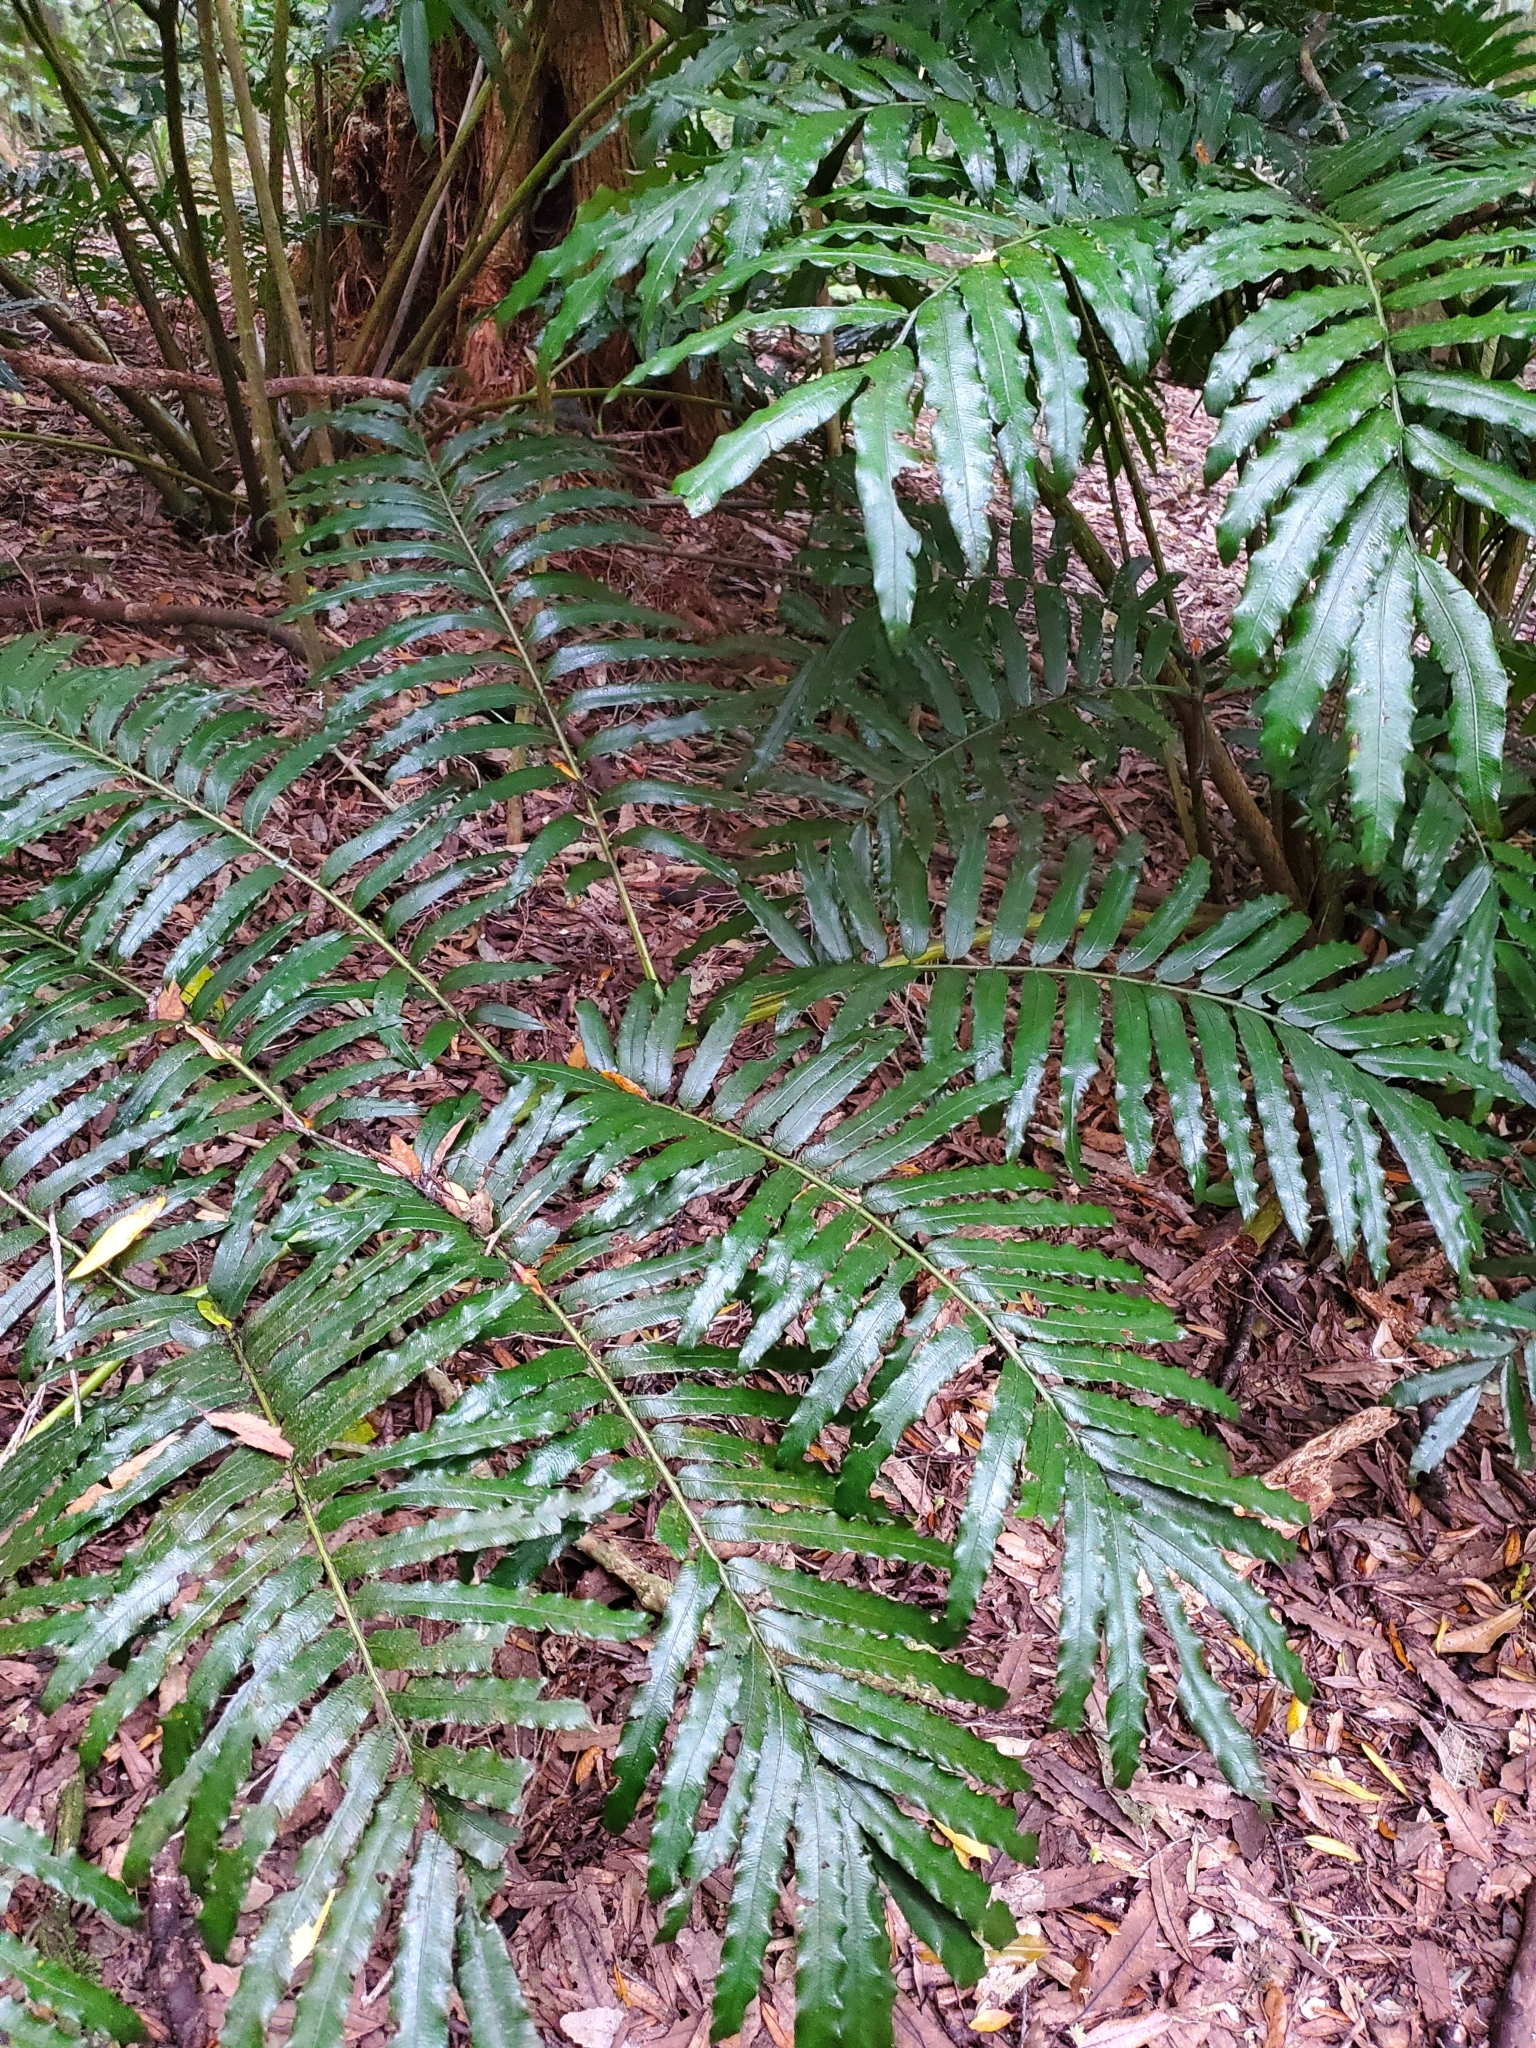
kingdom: Plantae
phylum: Tracheophyta
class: Polypodiopsida
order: Marattiales
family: Marattiaceae
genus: Ptisana
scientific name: Ptisana salicina
